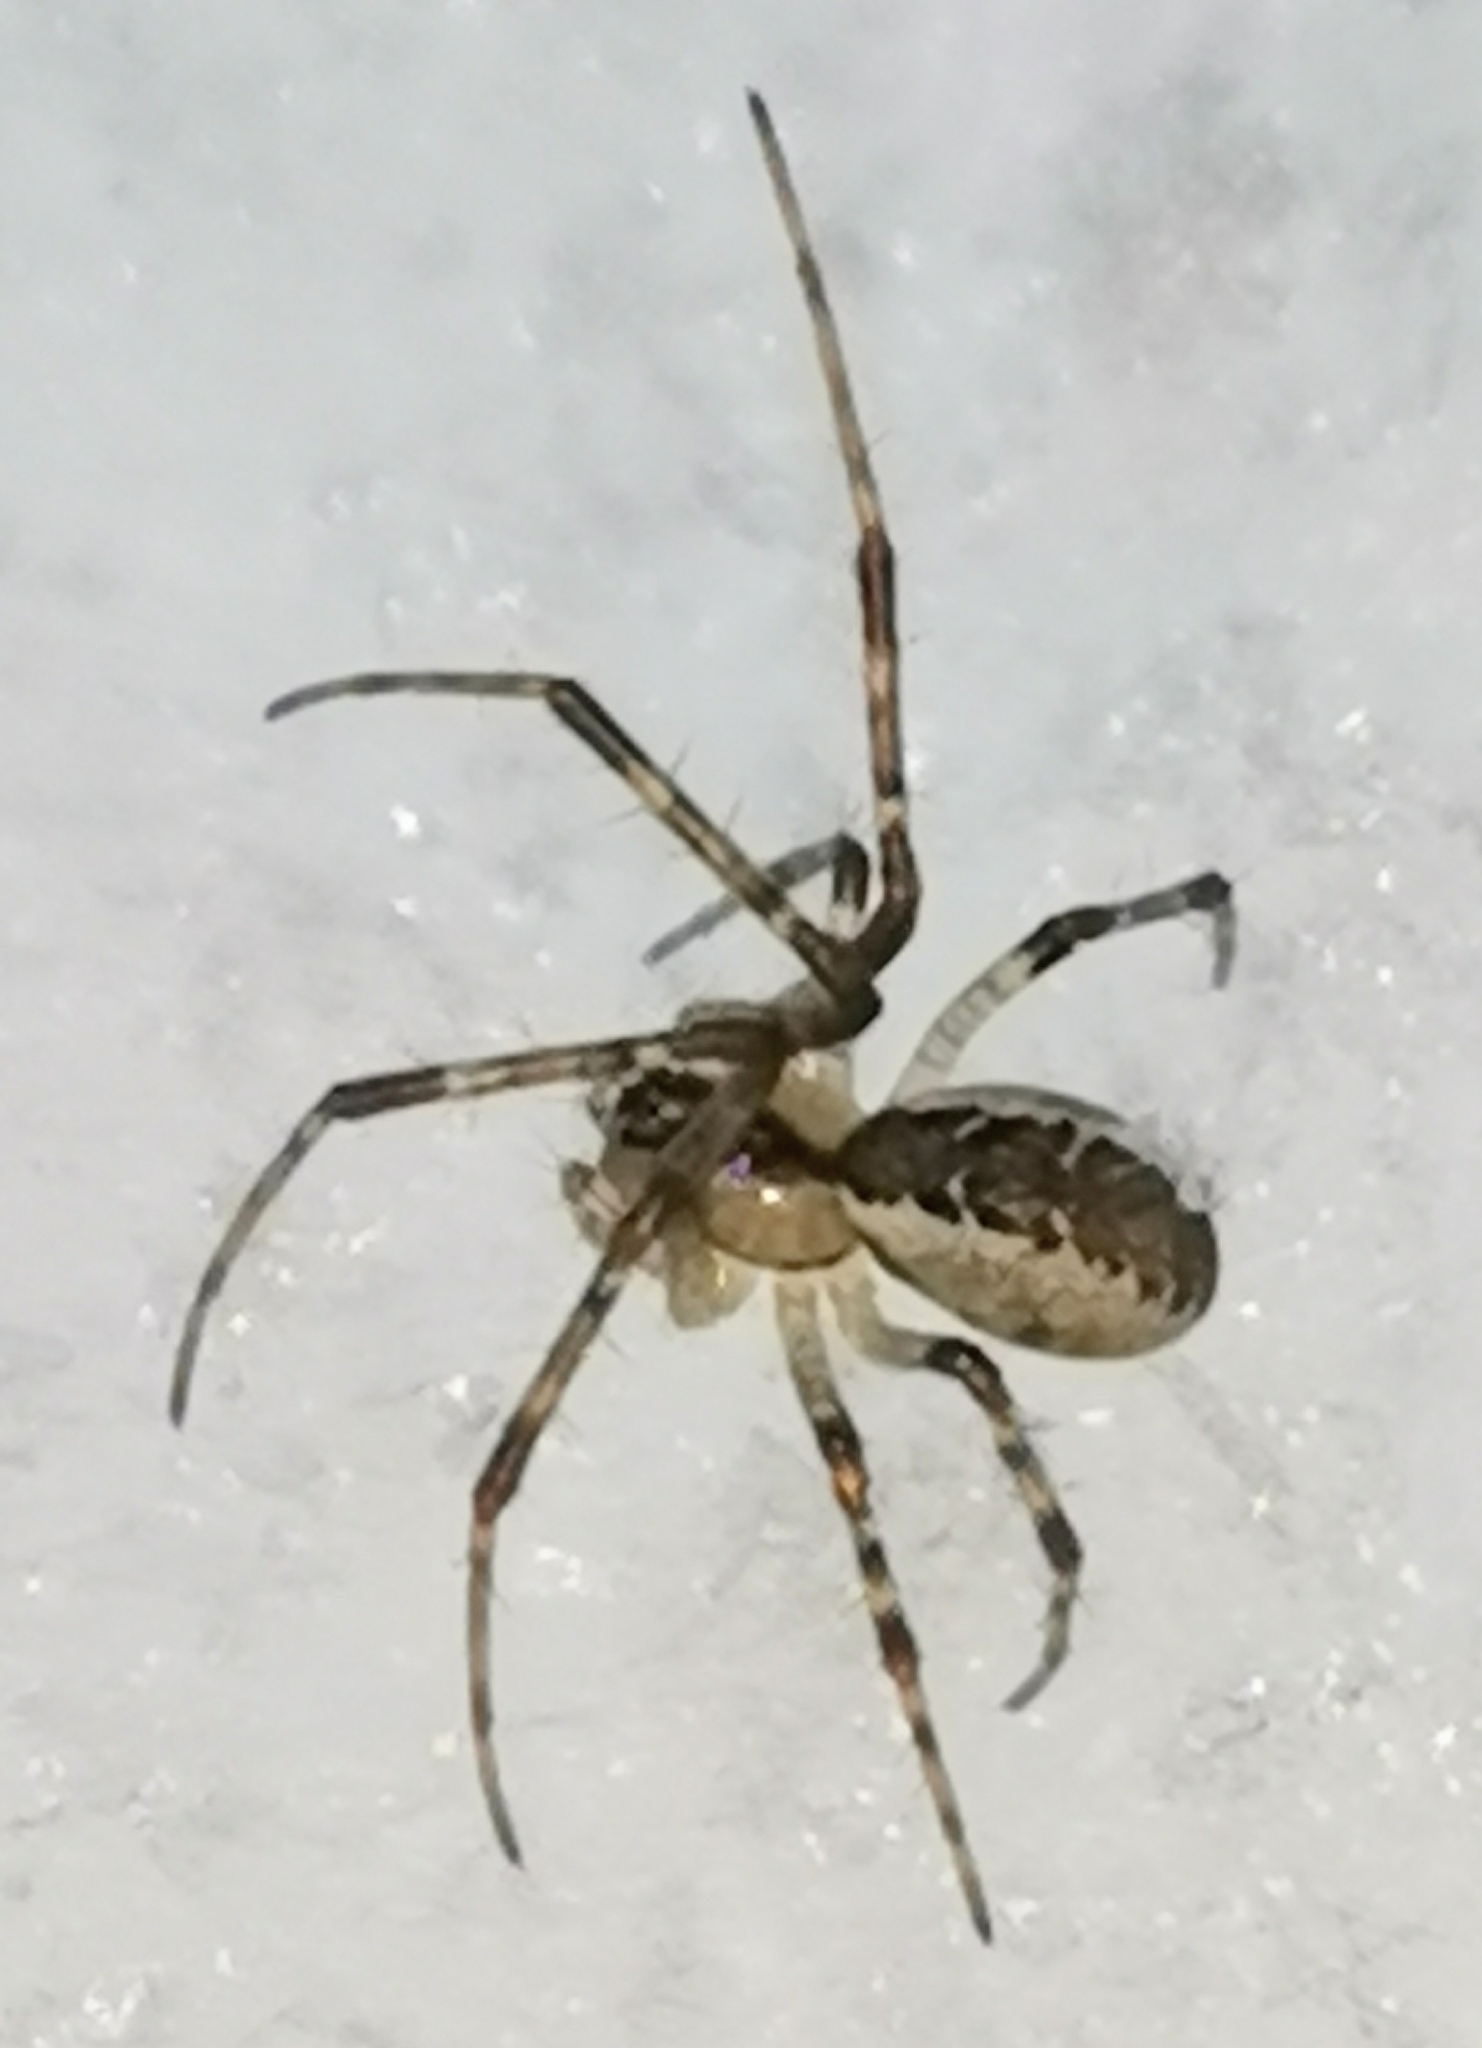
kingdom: Animalia
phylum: Arthropoda
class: Arachnida
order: Araneae
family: Linyphiidae
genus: Pityohyphantes
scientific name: Pityohyphantes phrygianus
